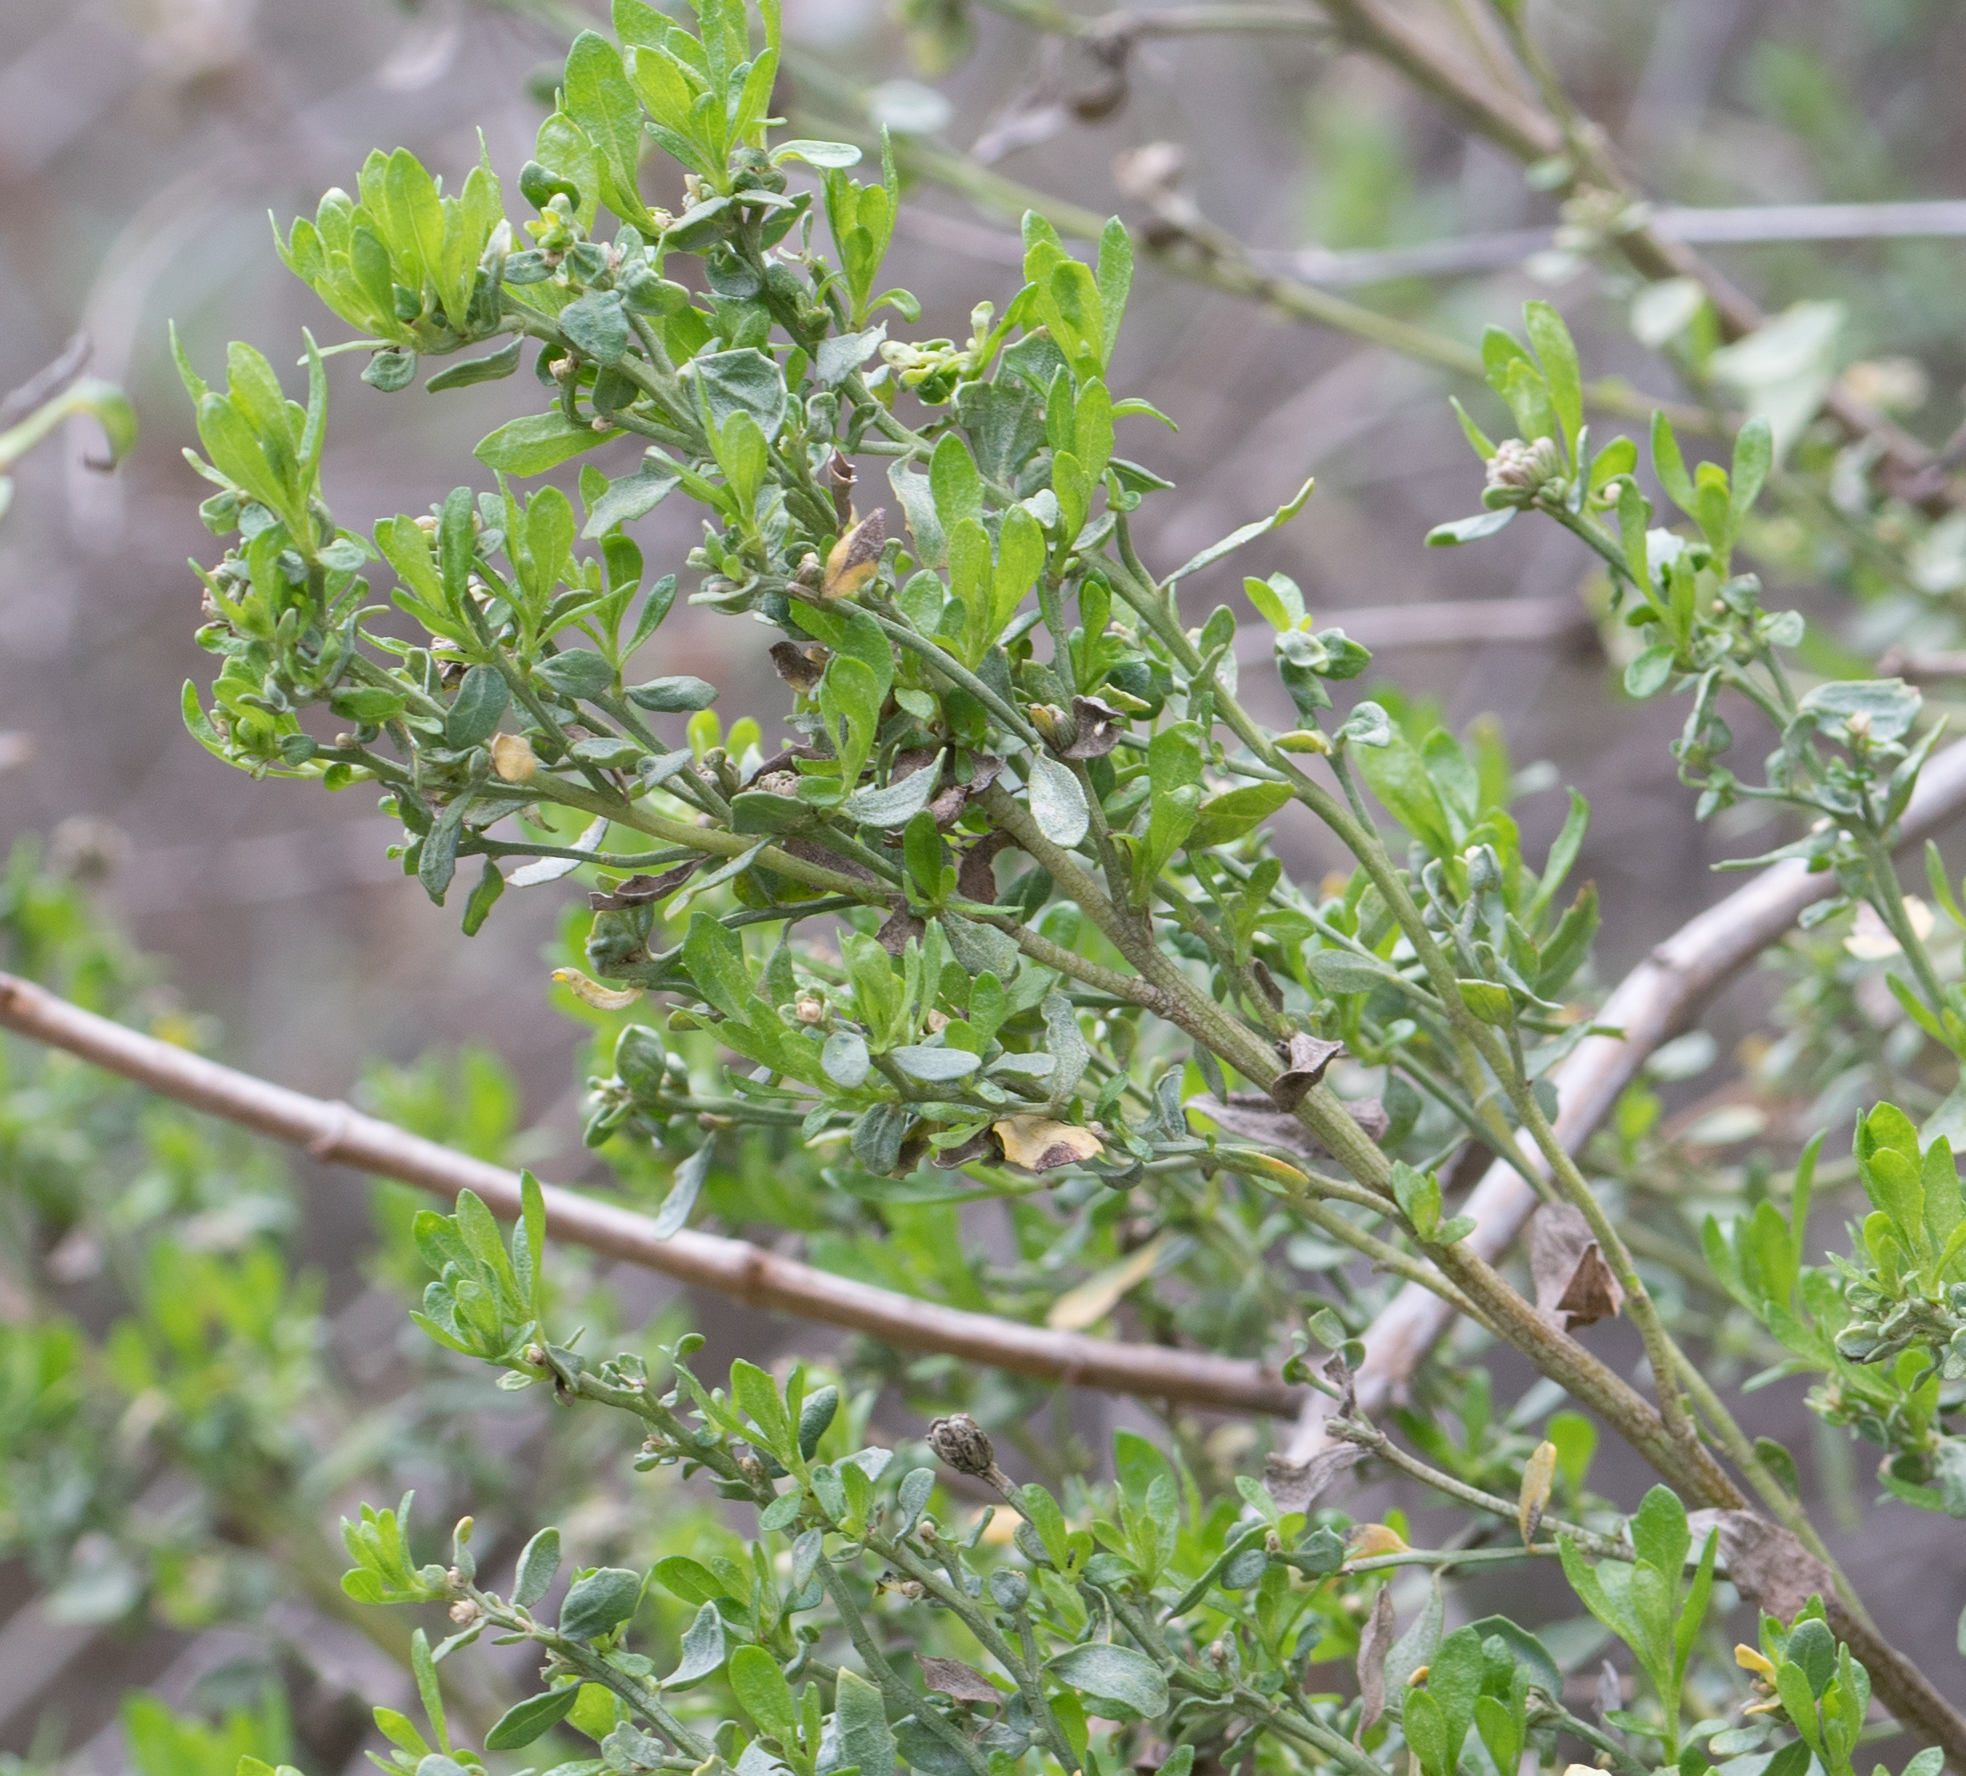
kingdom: Plantae
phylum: Tracheophyta
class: Magnoliopsida
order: Asterales
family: Asteraceae
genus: Baccharis
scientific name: Baccharis pilularis
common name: Coyotebrush
